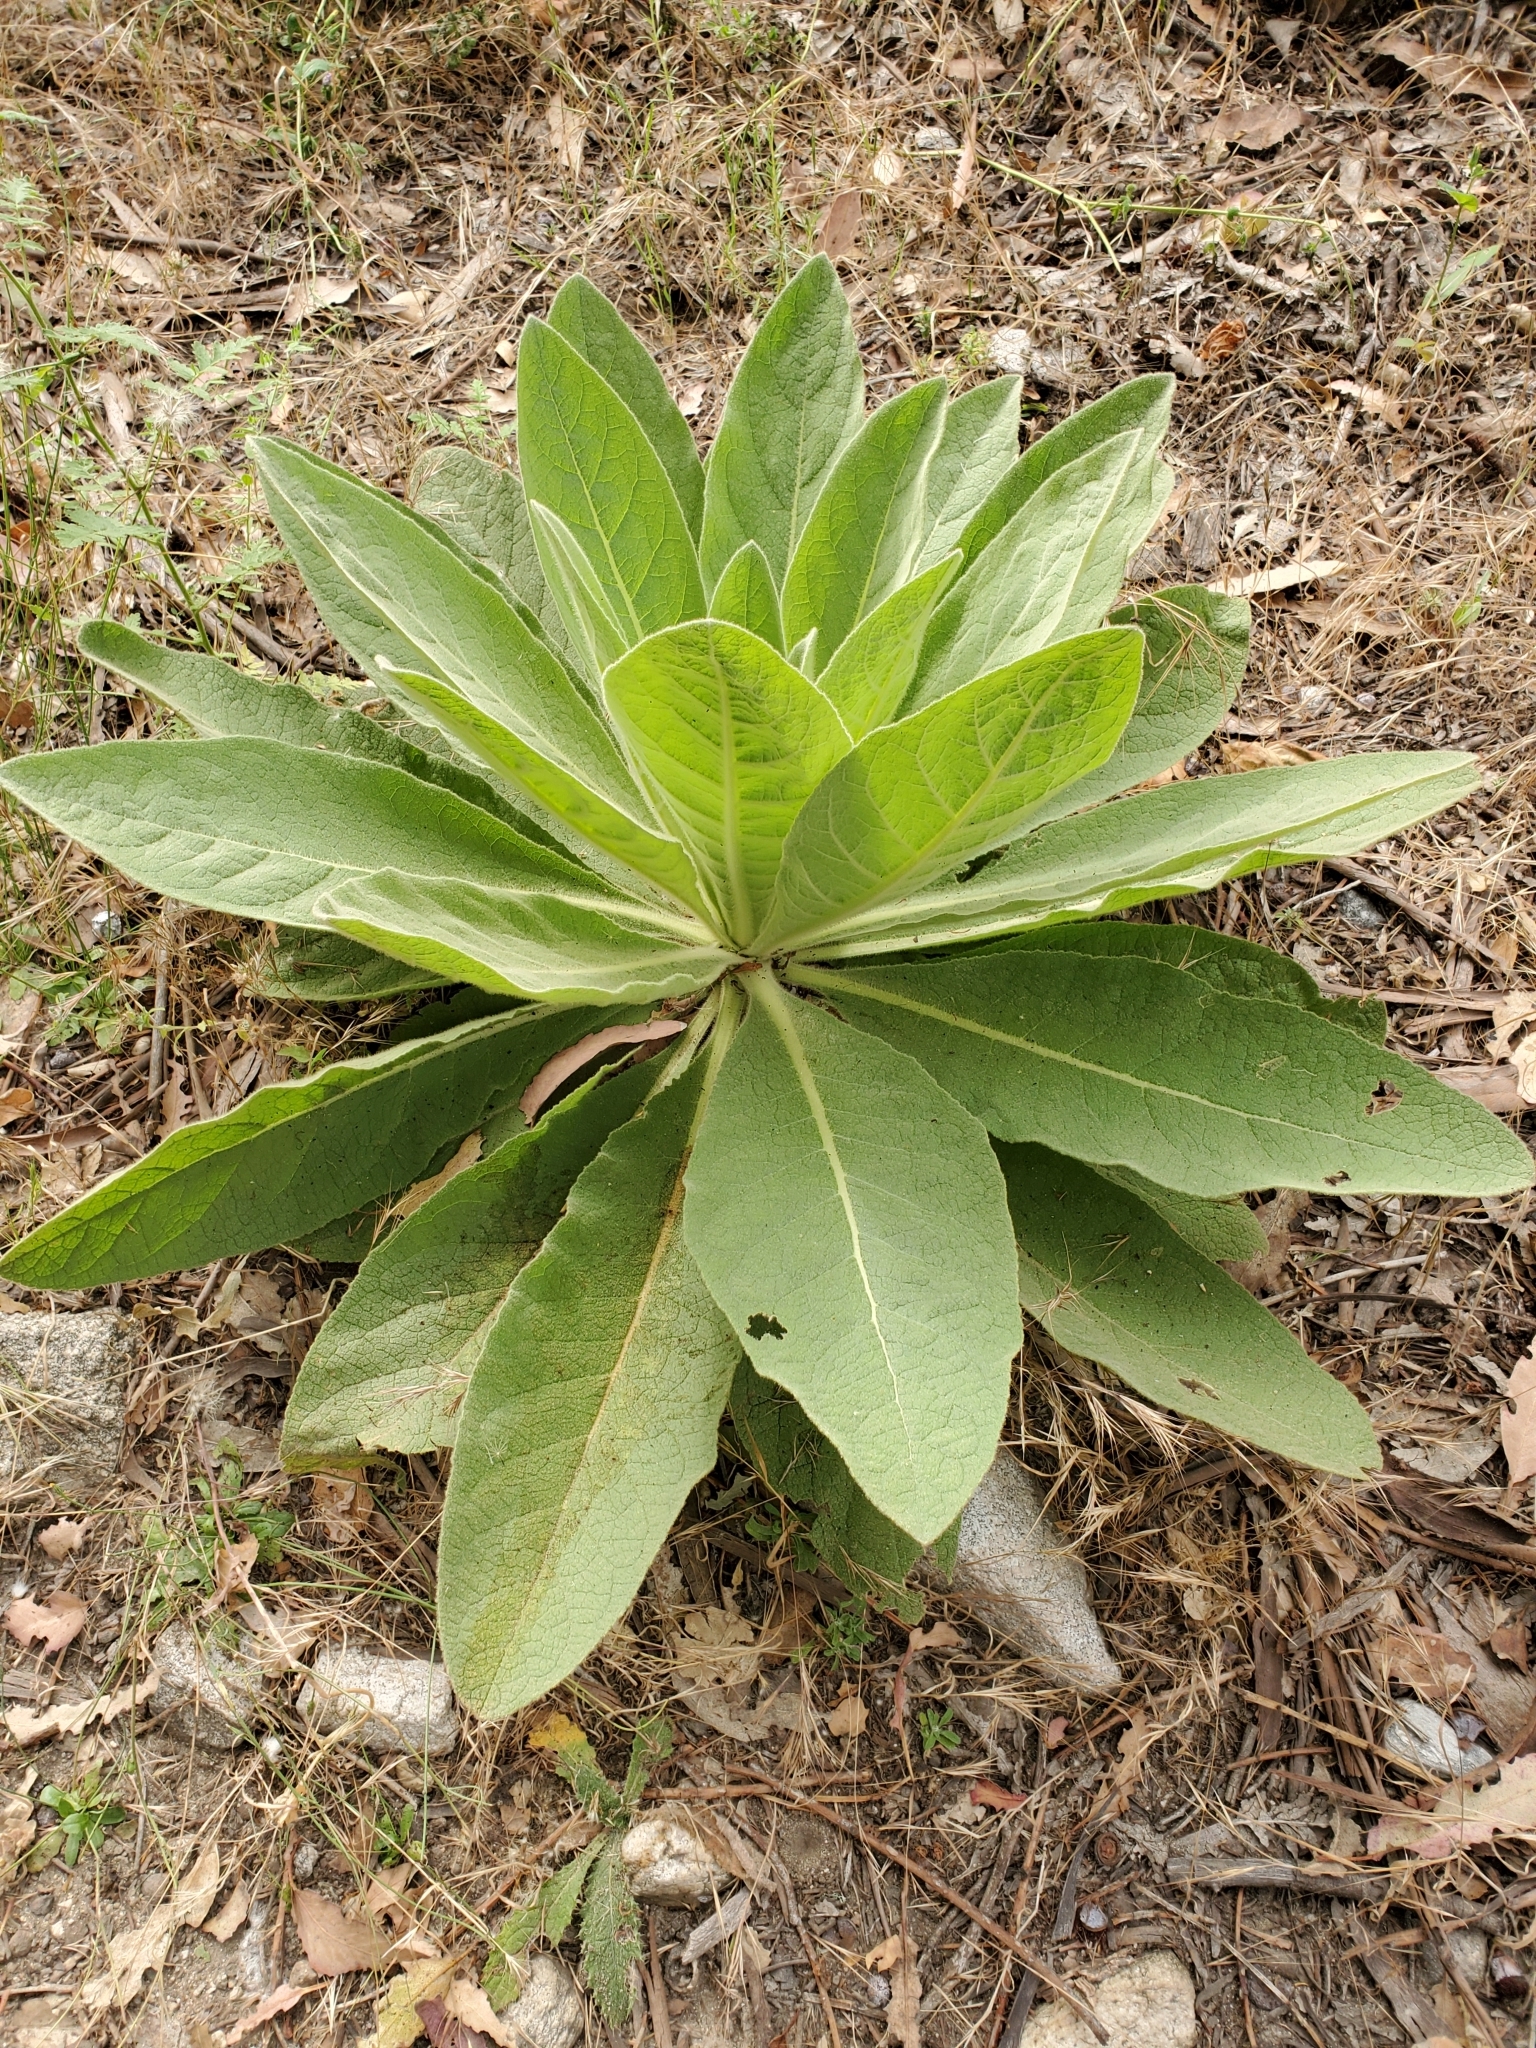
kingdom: Plantae
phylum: Tracheophyta
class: Magnoliopsida
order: Lamiales
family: Scrophulariaceae
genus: Verbascum
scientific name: Verbascum thapsus
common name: Common mullein
